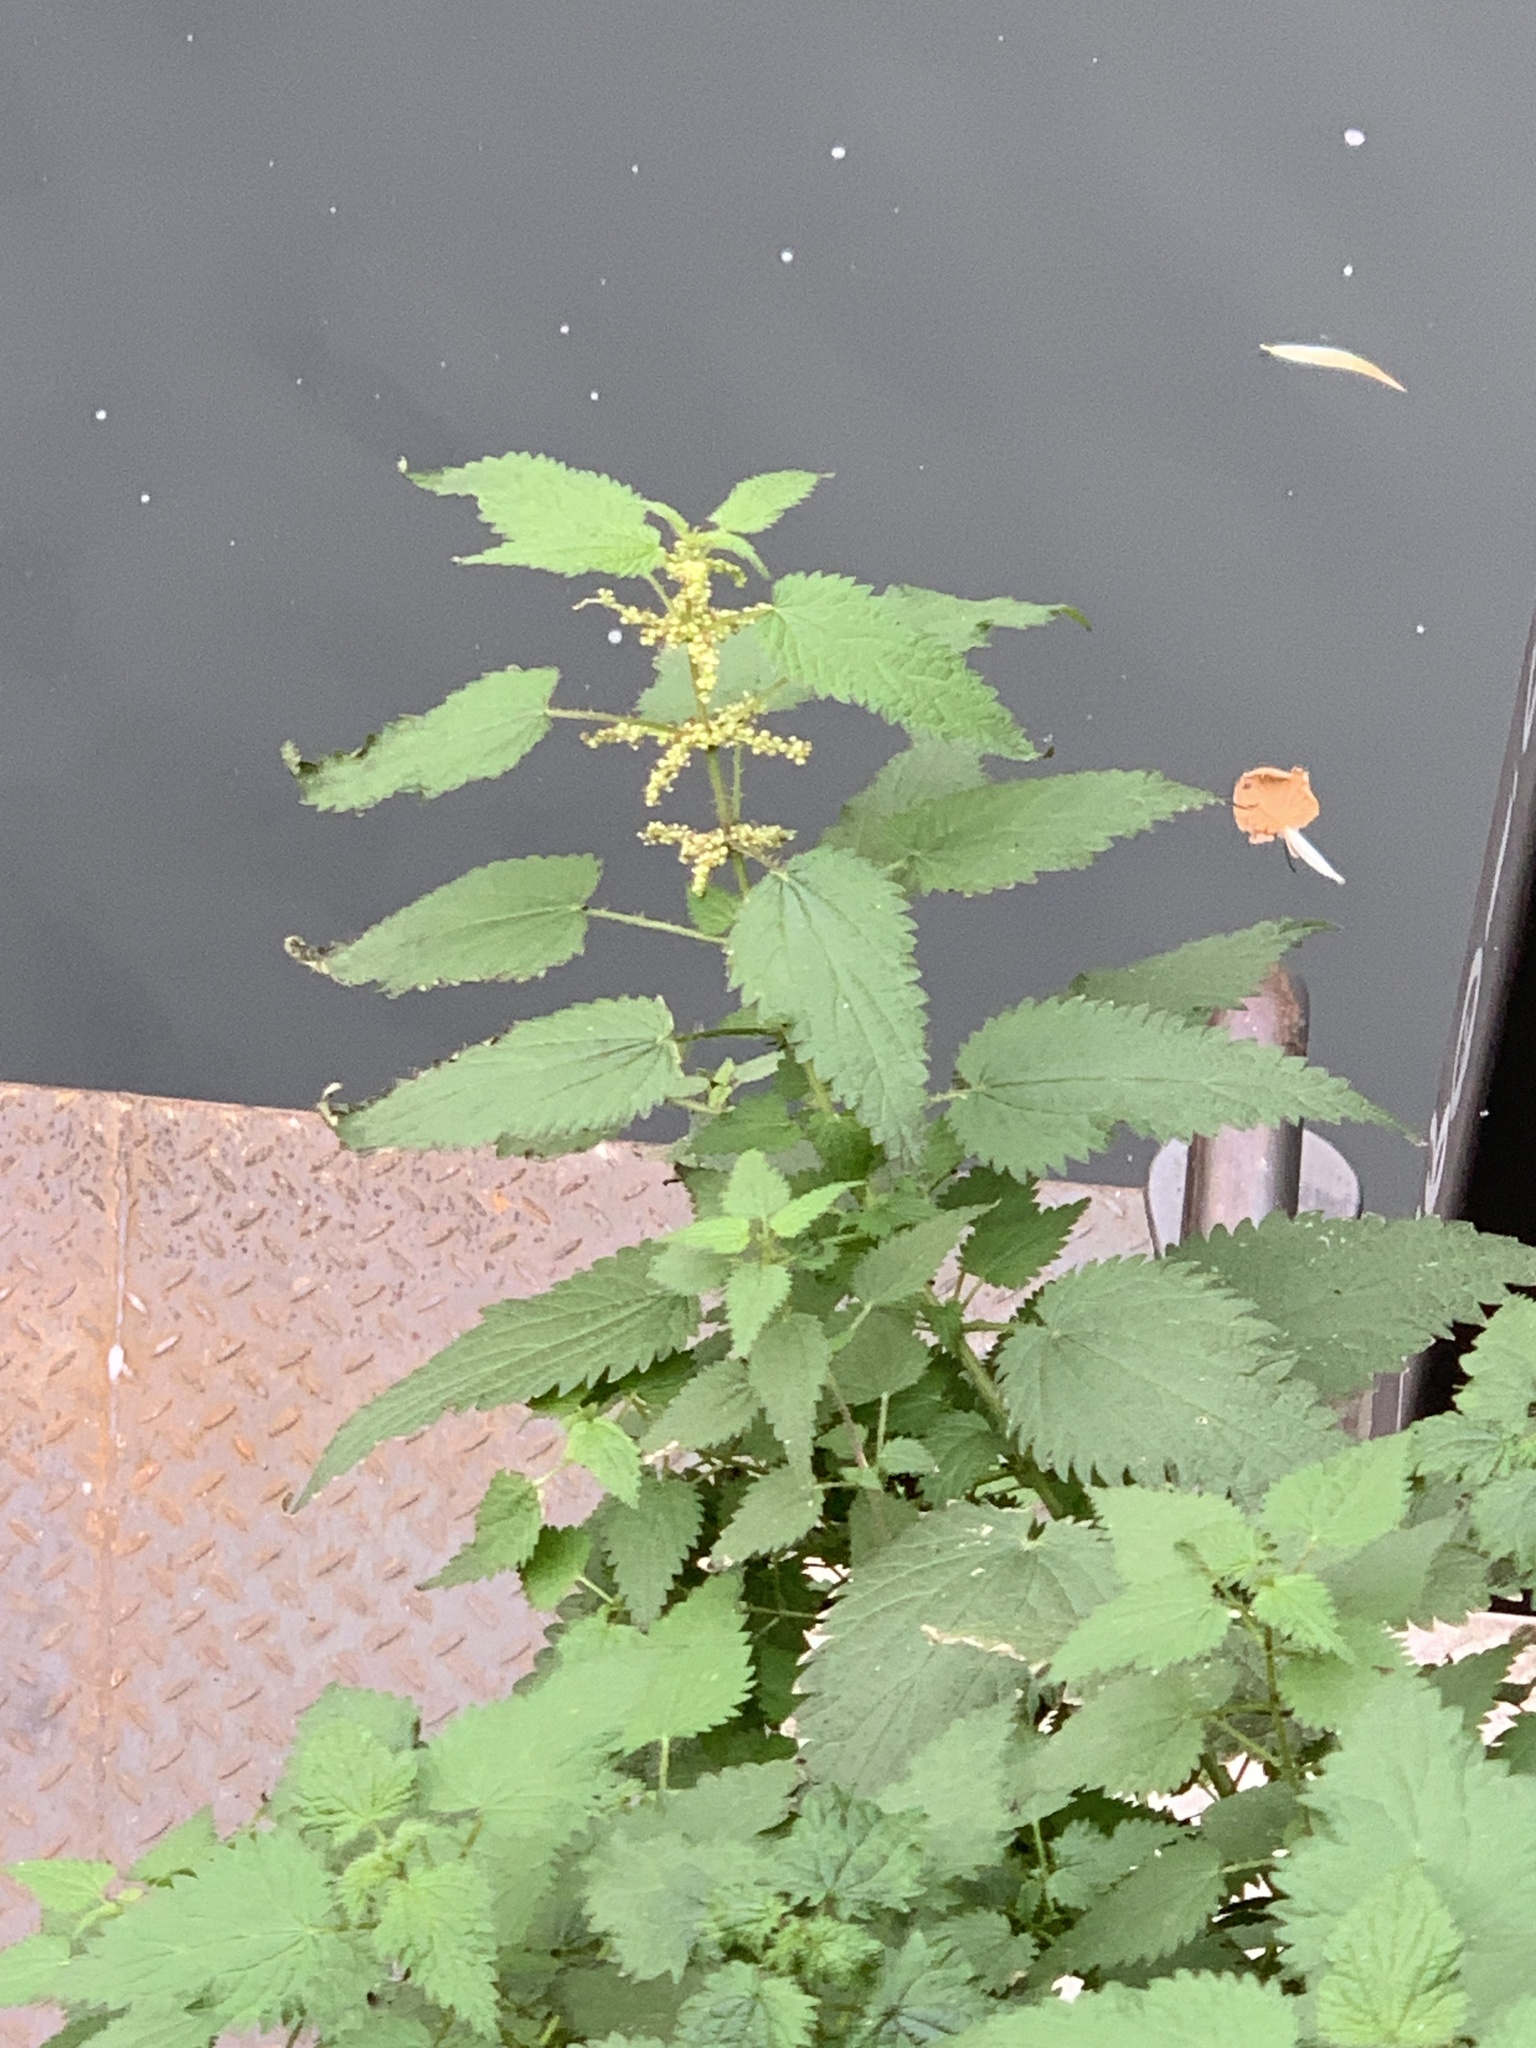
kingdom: Plantae
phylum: Tracheophyta
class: Magnoliopsida
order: Rosales
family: Urticaceae
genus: Urtica
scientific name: Urtica dioica
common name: Common nettle
